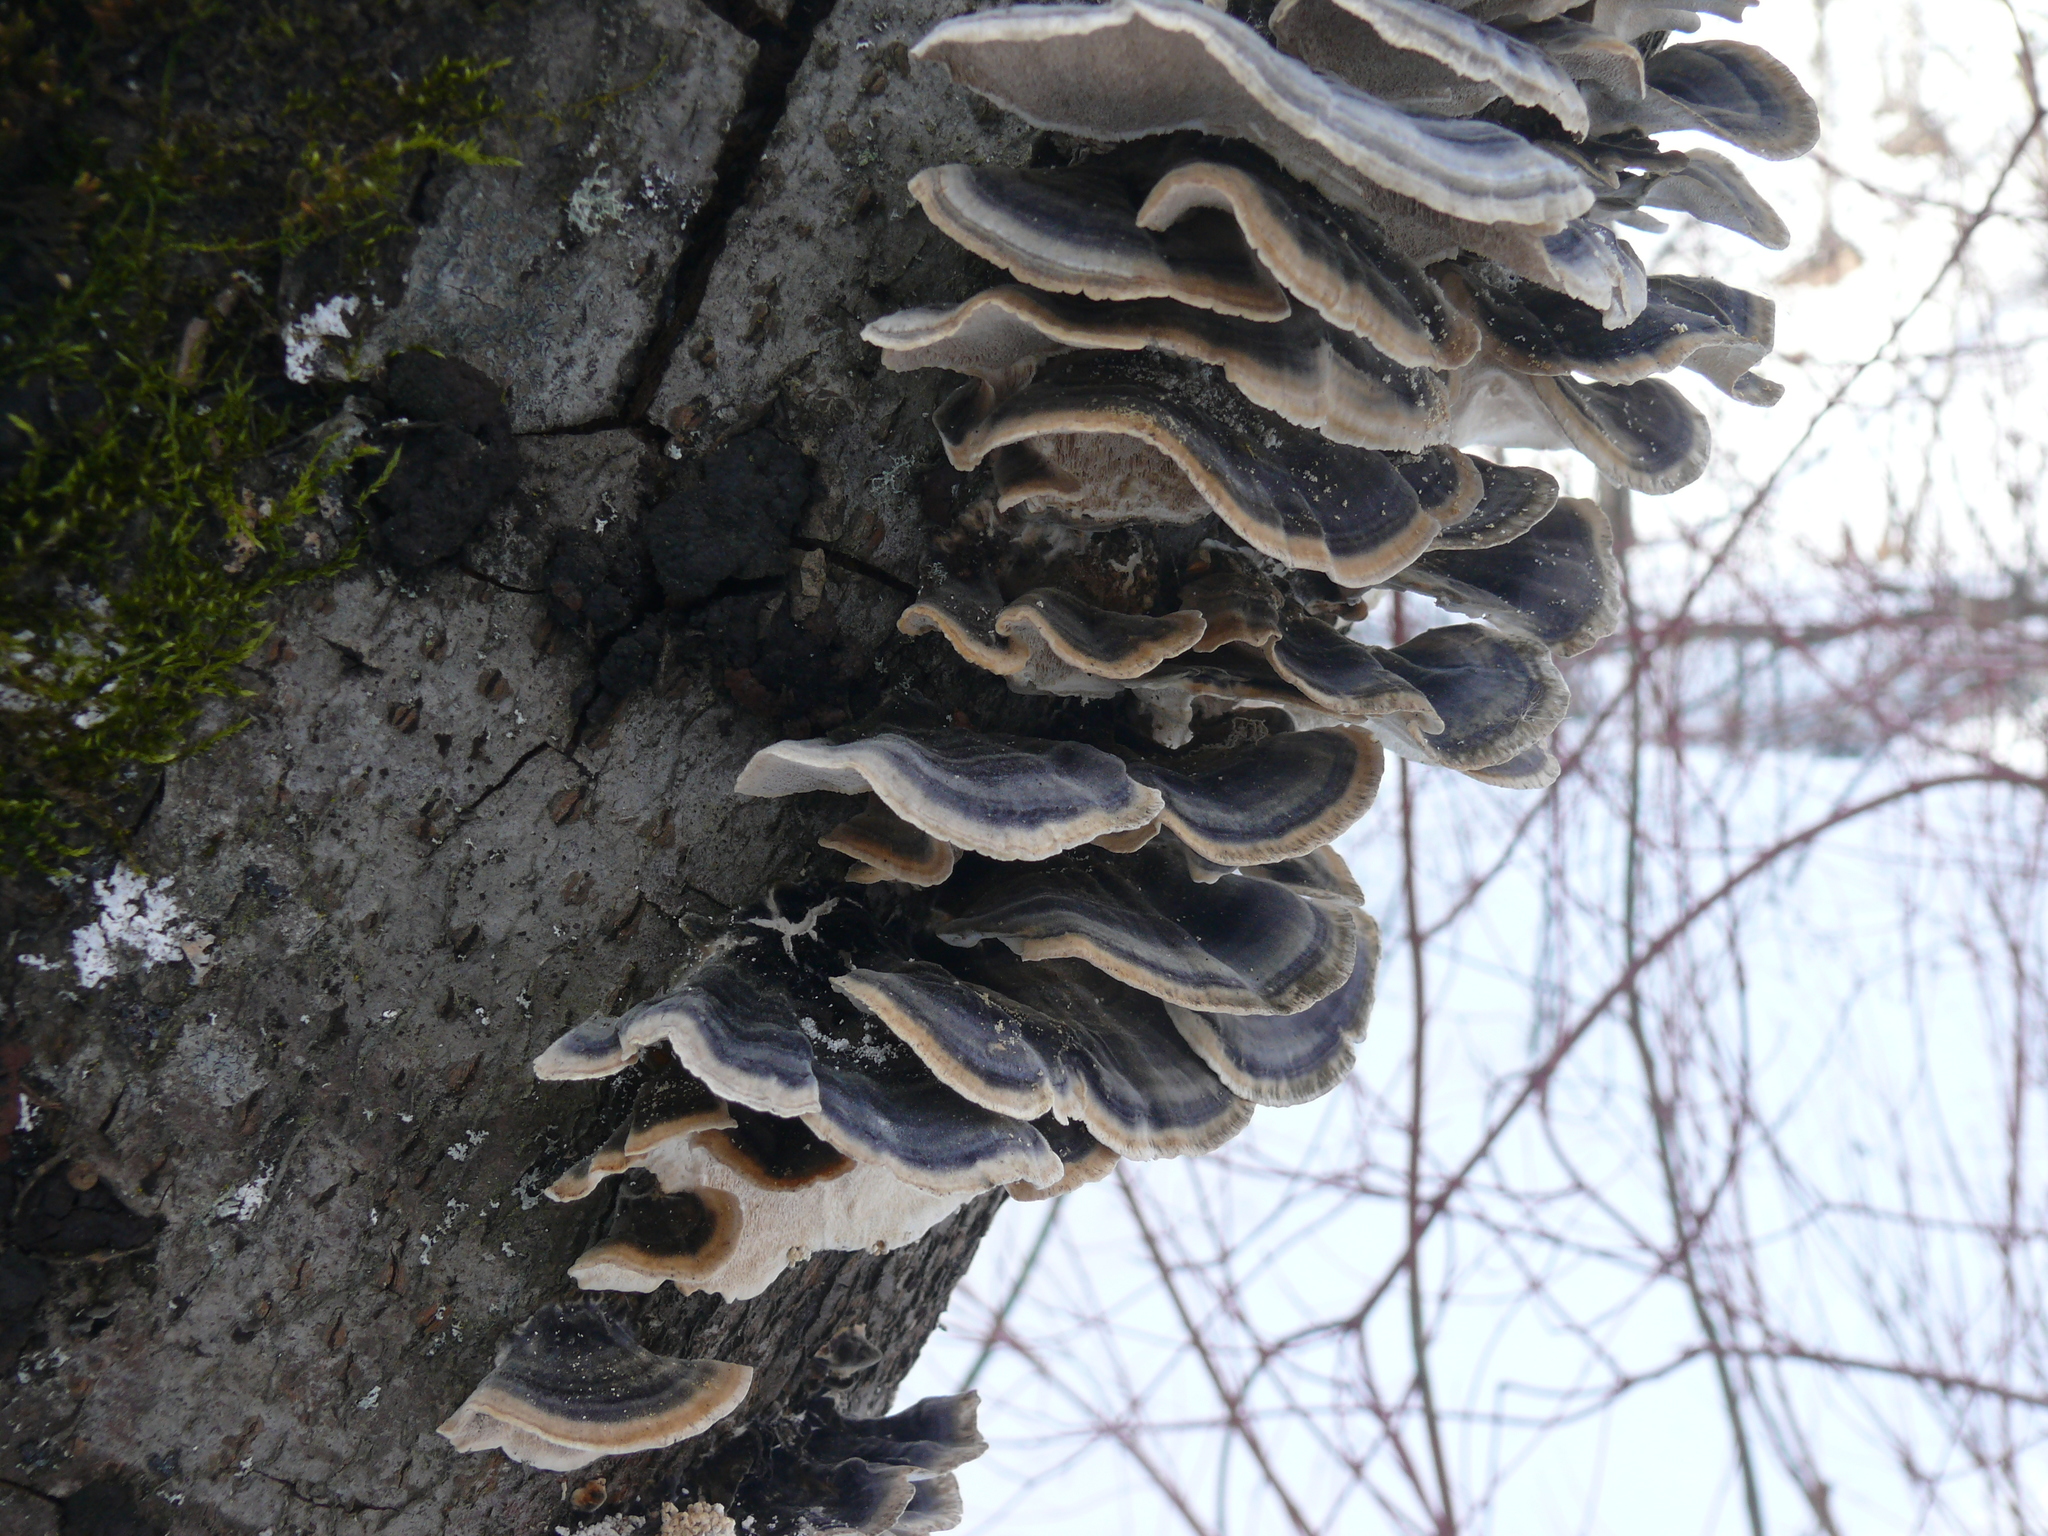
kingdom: Fungi
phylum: Basidiomycota
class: Agaricomycetes
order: Polyporales
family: Polyporaceae
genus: Trametes
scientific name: Trametes versicolor
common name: Turkeytail
